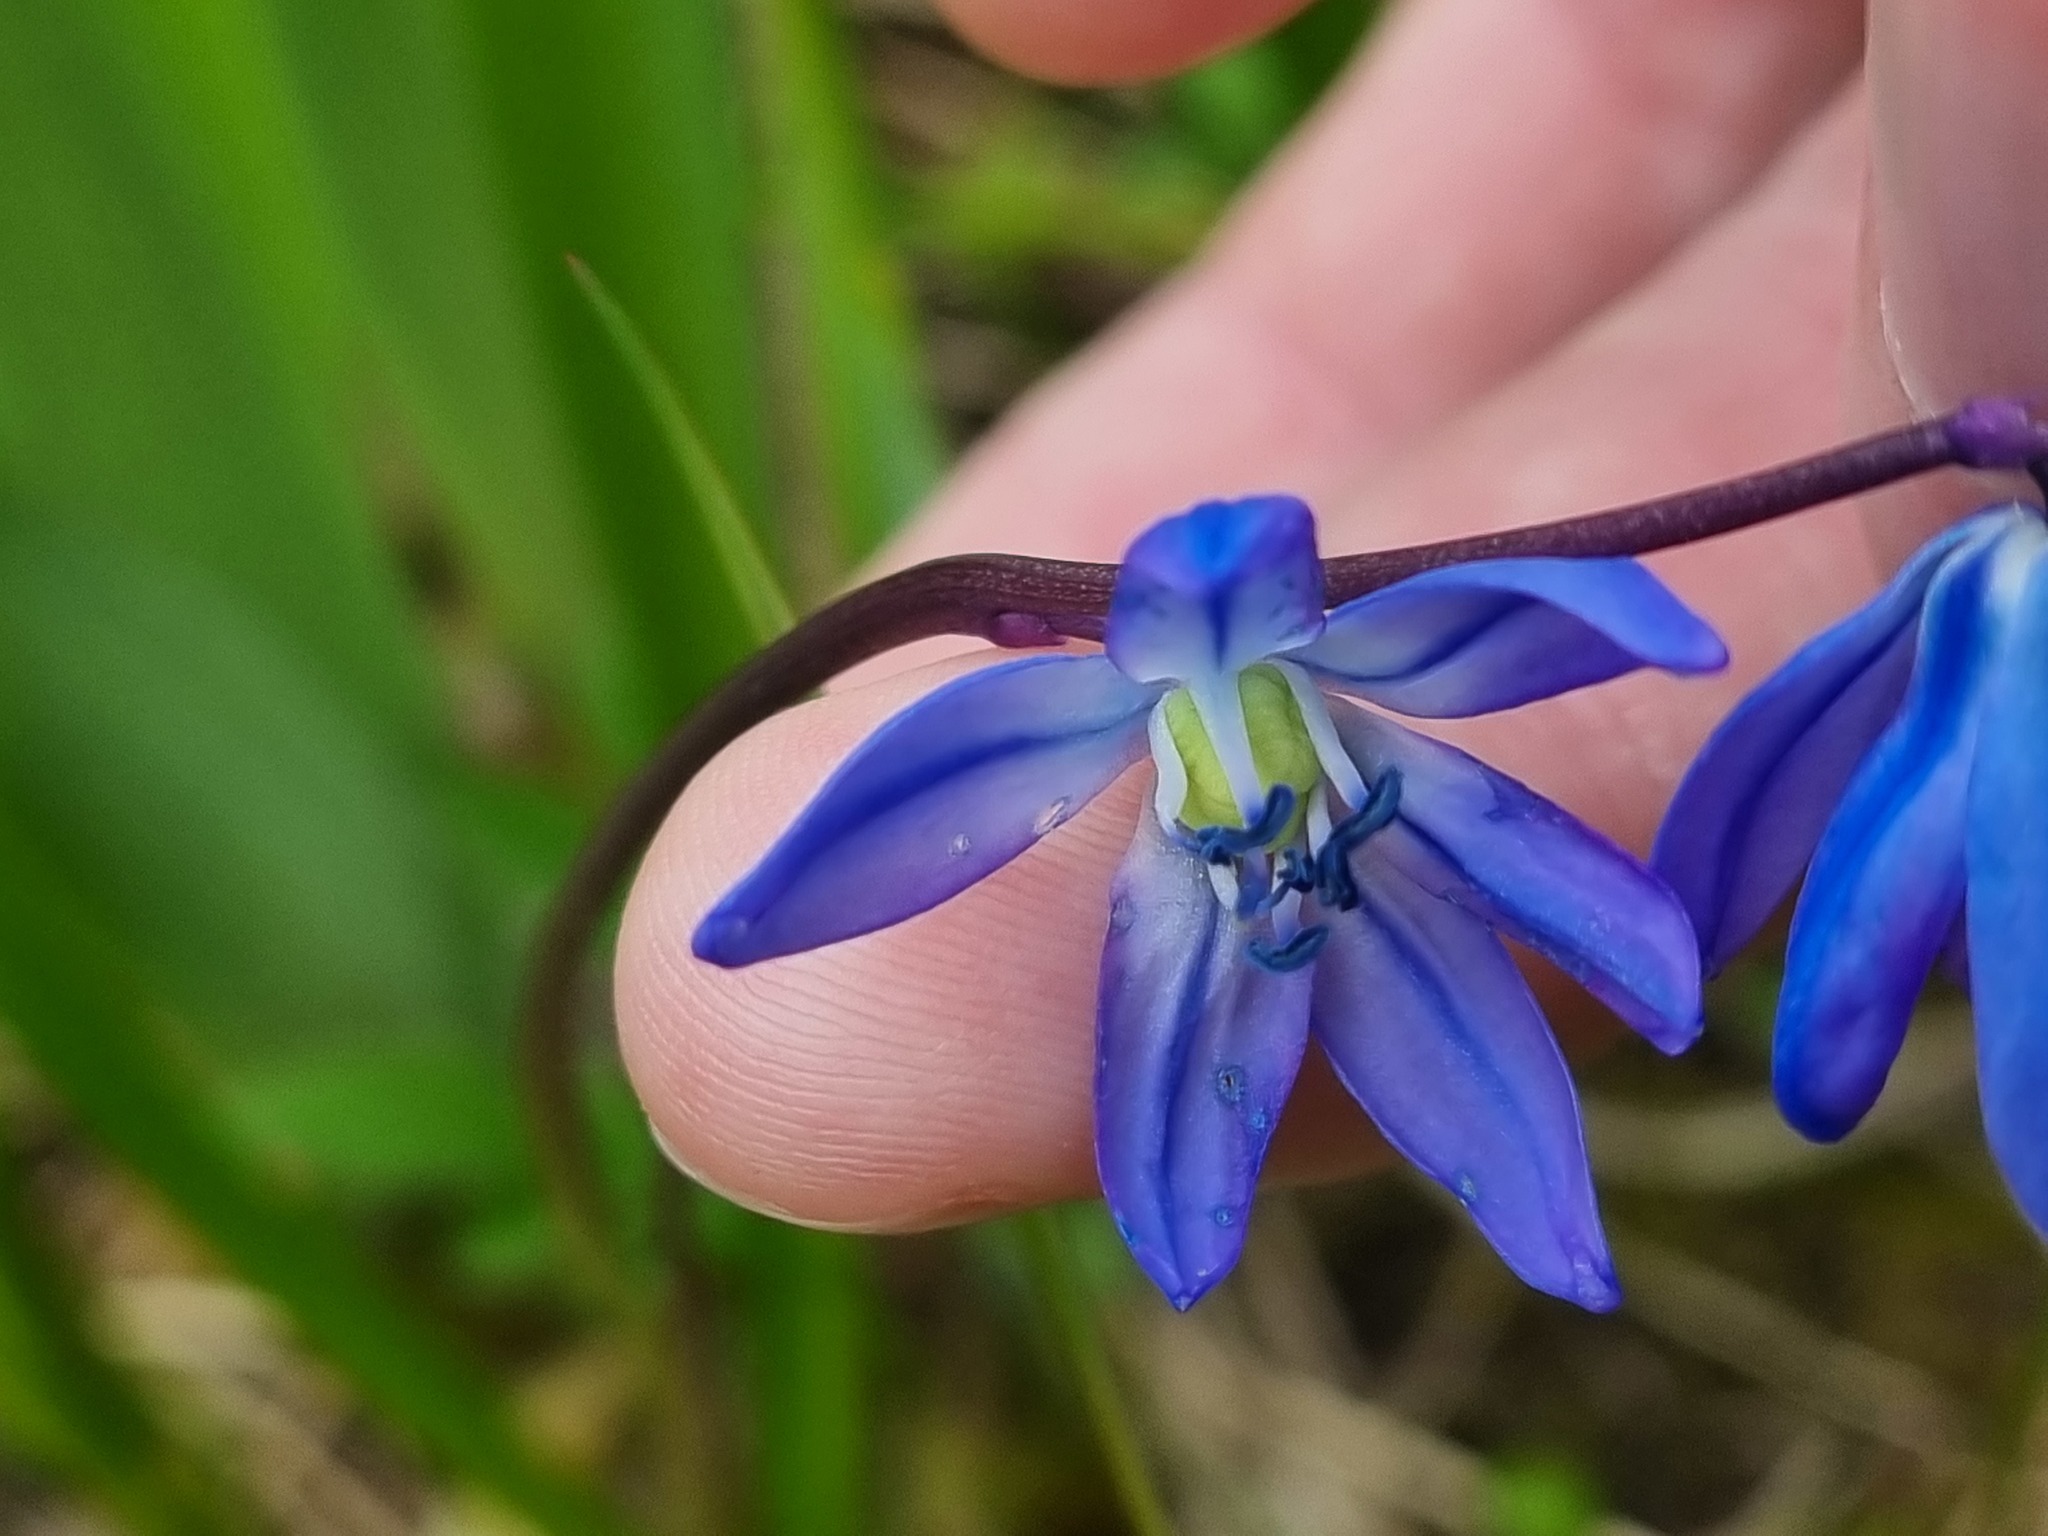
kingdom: Plantae
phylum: Tracheophyta
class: Liliopsida
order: Asparagales
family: Asparagaceae
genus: Scilla
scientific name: Scilla siberica
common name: Siberian squill
